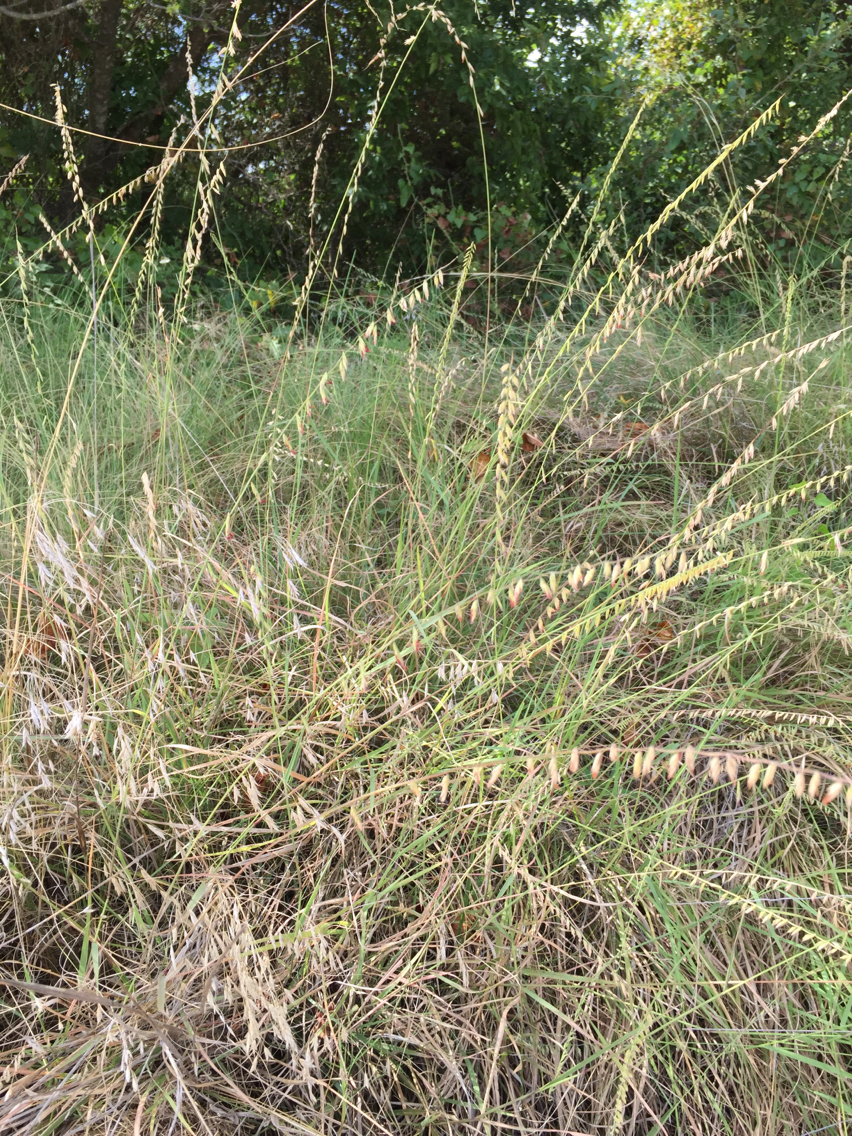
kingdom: Plantae
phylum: Tracheophyta
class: Liliopsida
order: Poales
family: Poaceae
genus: Bouteloua
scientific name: Bouteloua curtipendula
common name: Side-oats grama
